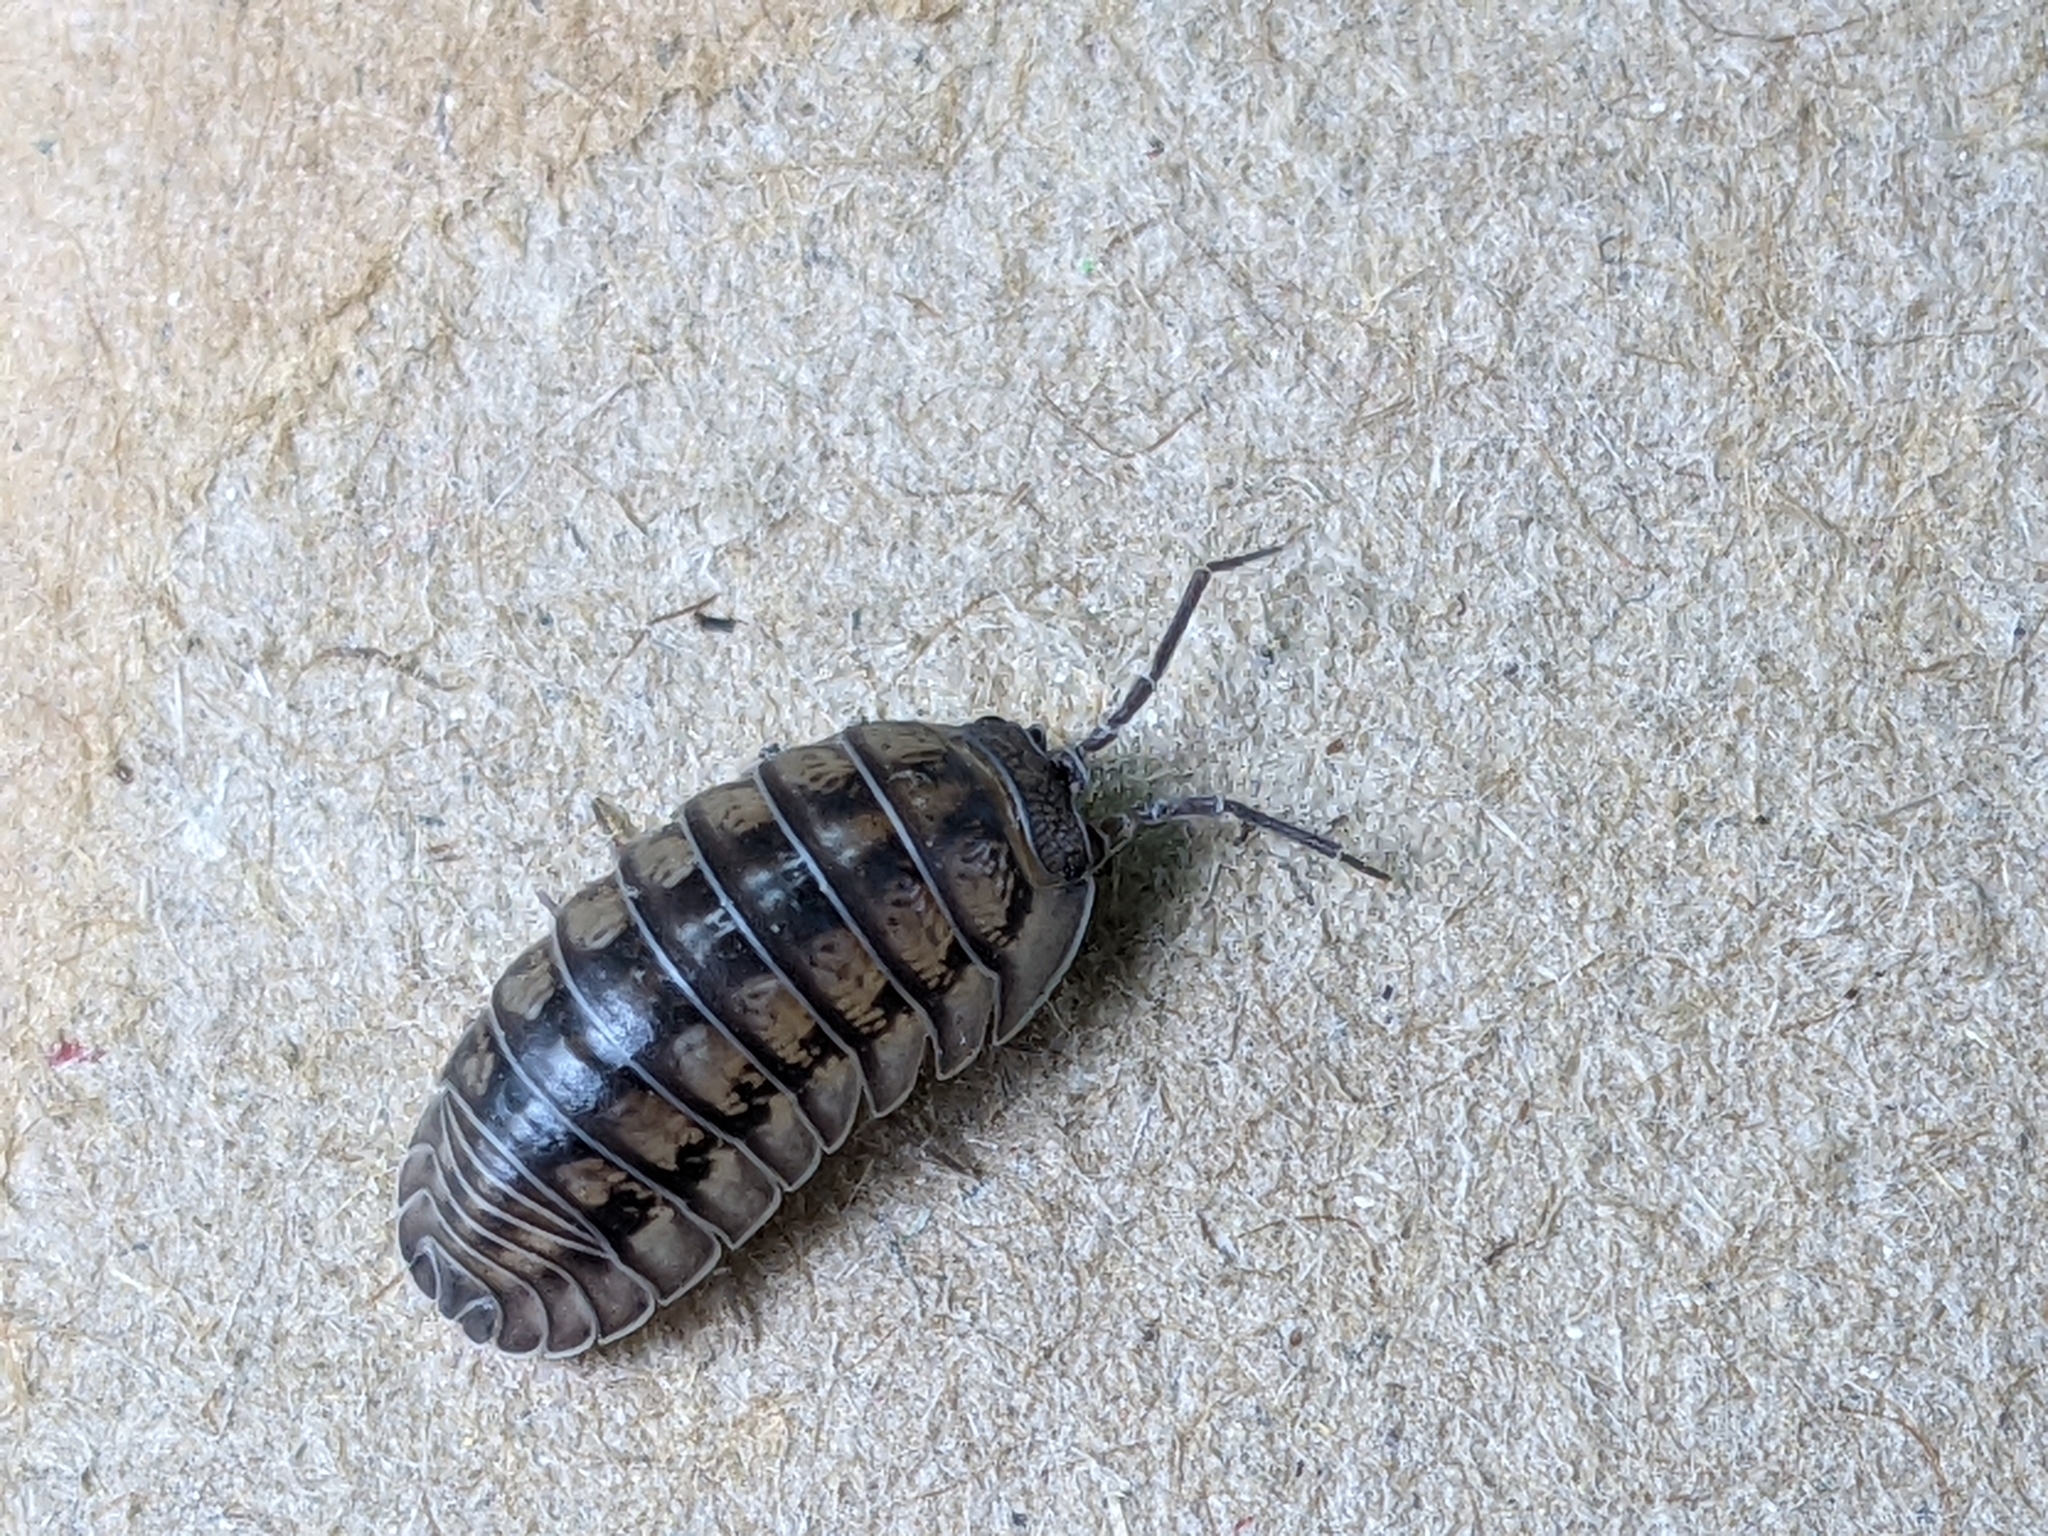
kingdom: Animalia
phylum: Arthropoda
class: Malacostraca
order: Isopoda
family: Armadillidiidae
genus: Armadillidium
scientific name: Armadillidium nasatum
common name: Isopod
